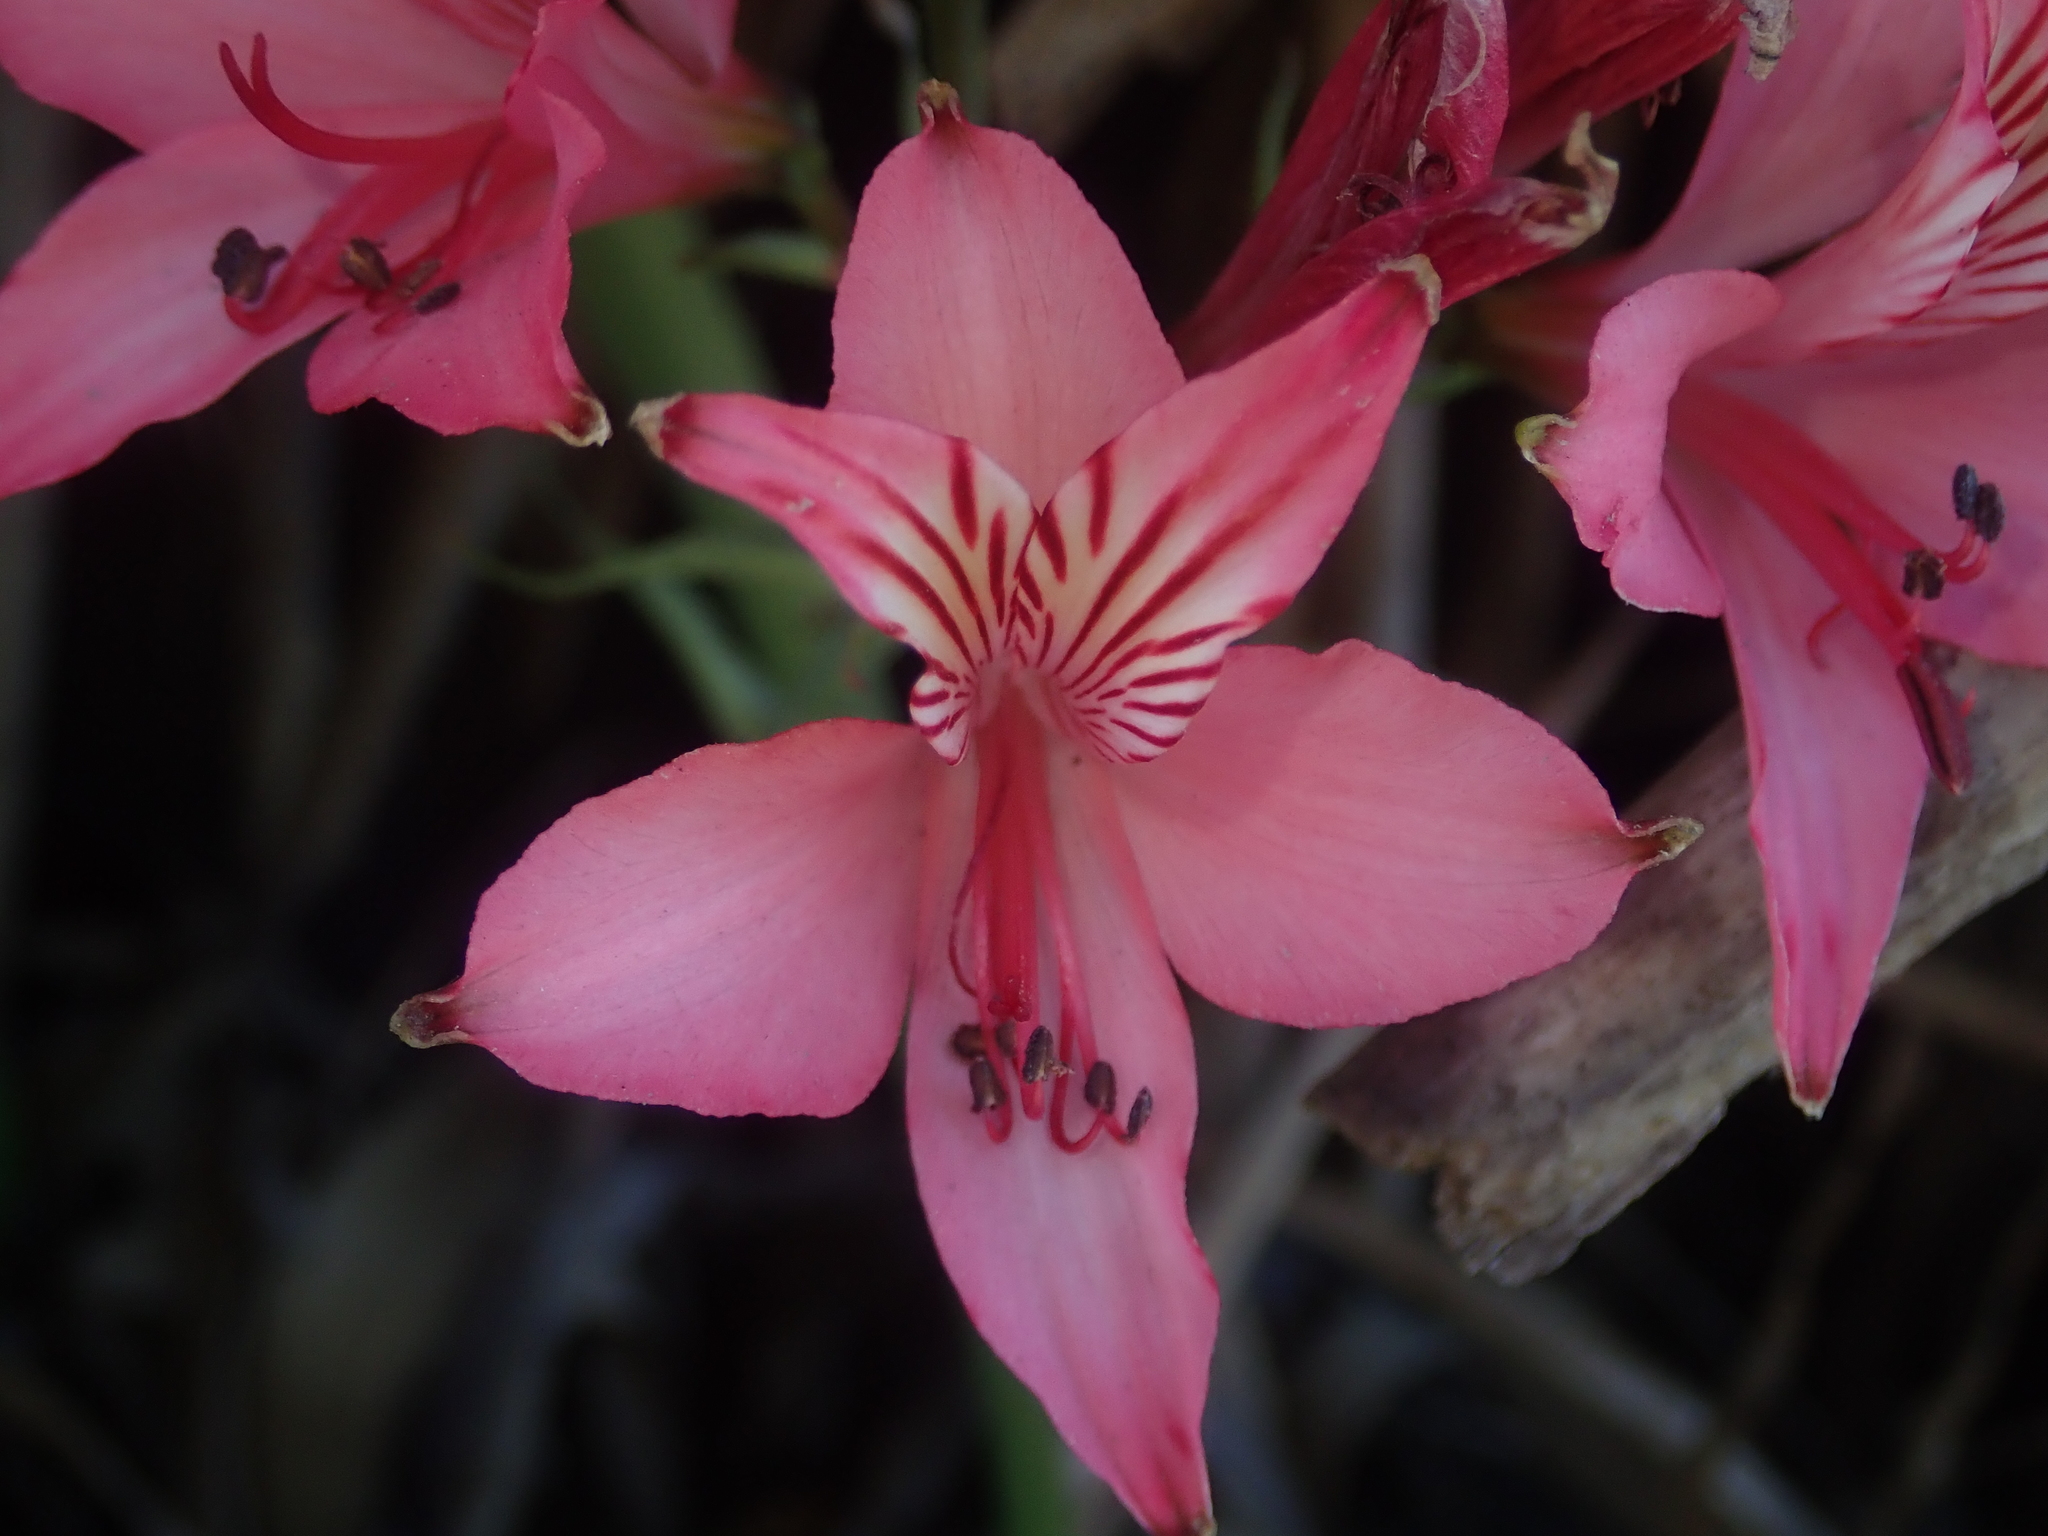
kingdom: Plantae
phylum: Tracheophyta
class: Liliopsida
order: Liliales
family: Alstroemeriaceae
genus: Alstroemeria
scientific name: Alstroemeria ligtu
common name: St. martin's-flower
